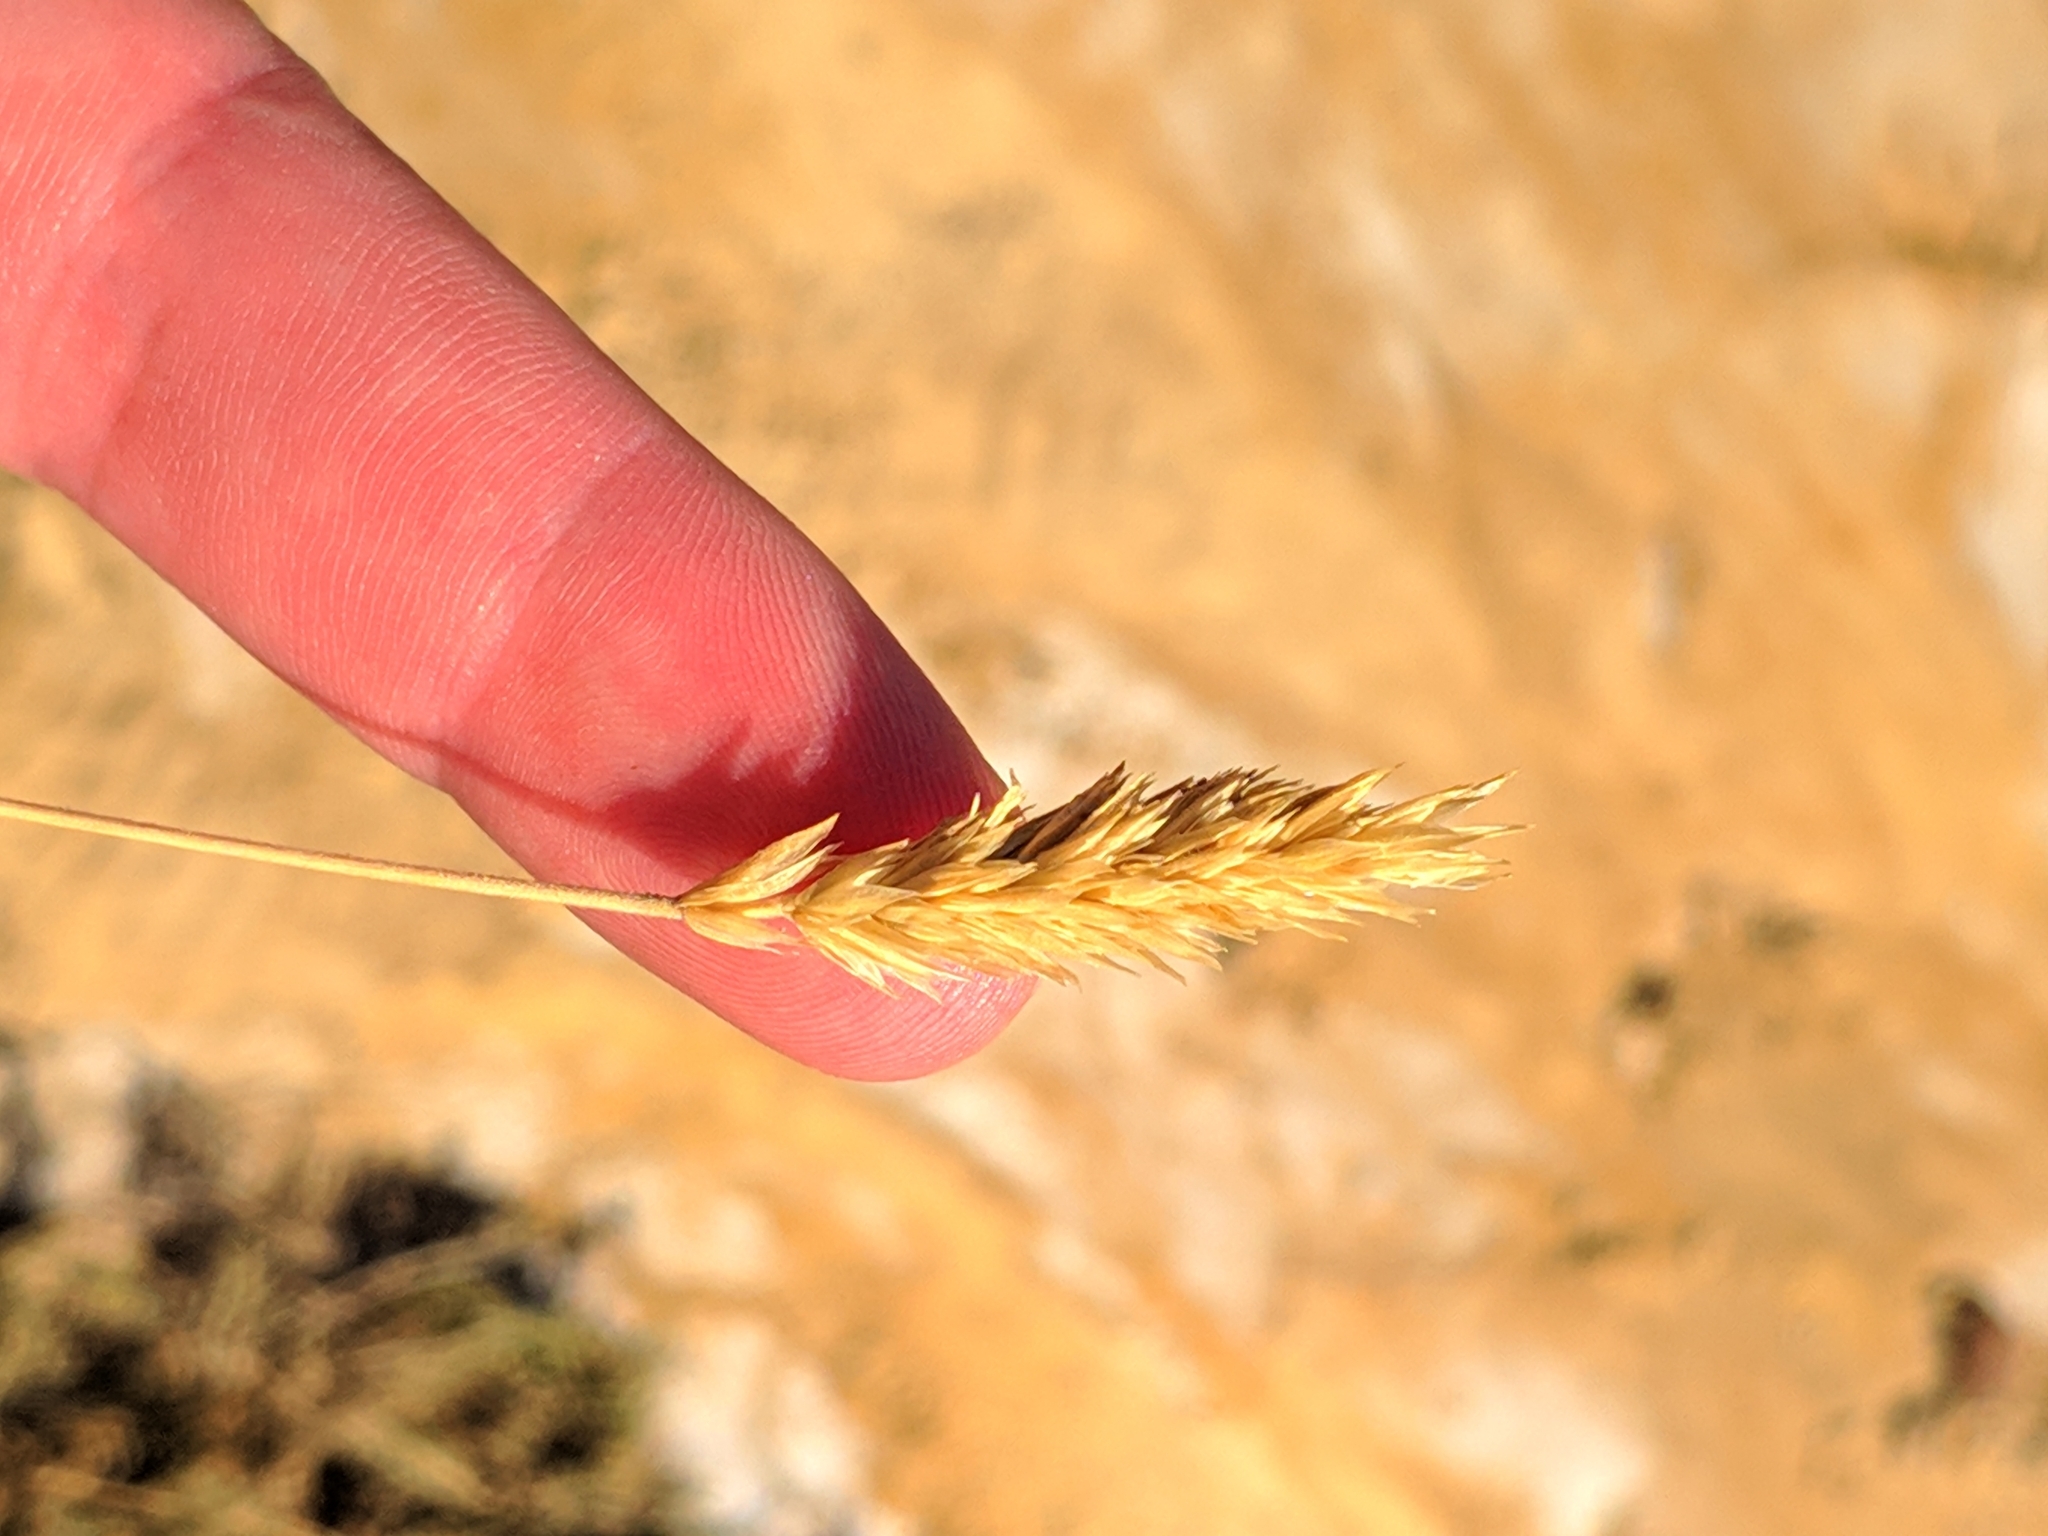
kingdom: Plantae
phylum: Tracheophyta
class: Liliopsida
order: Poales
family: Poaceae
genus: Koeleria
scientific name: Koeleria vallesiana
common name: Somerset hair-grass
